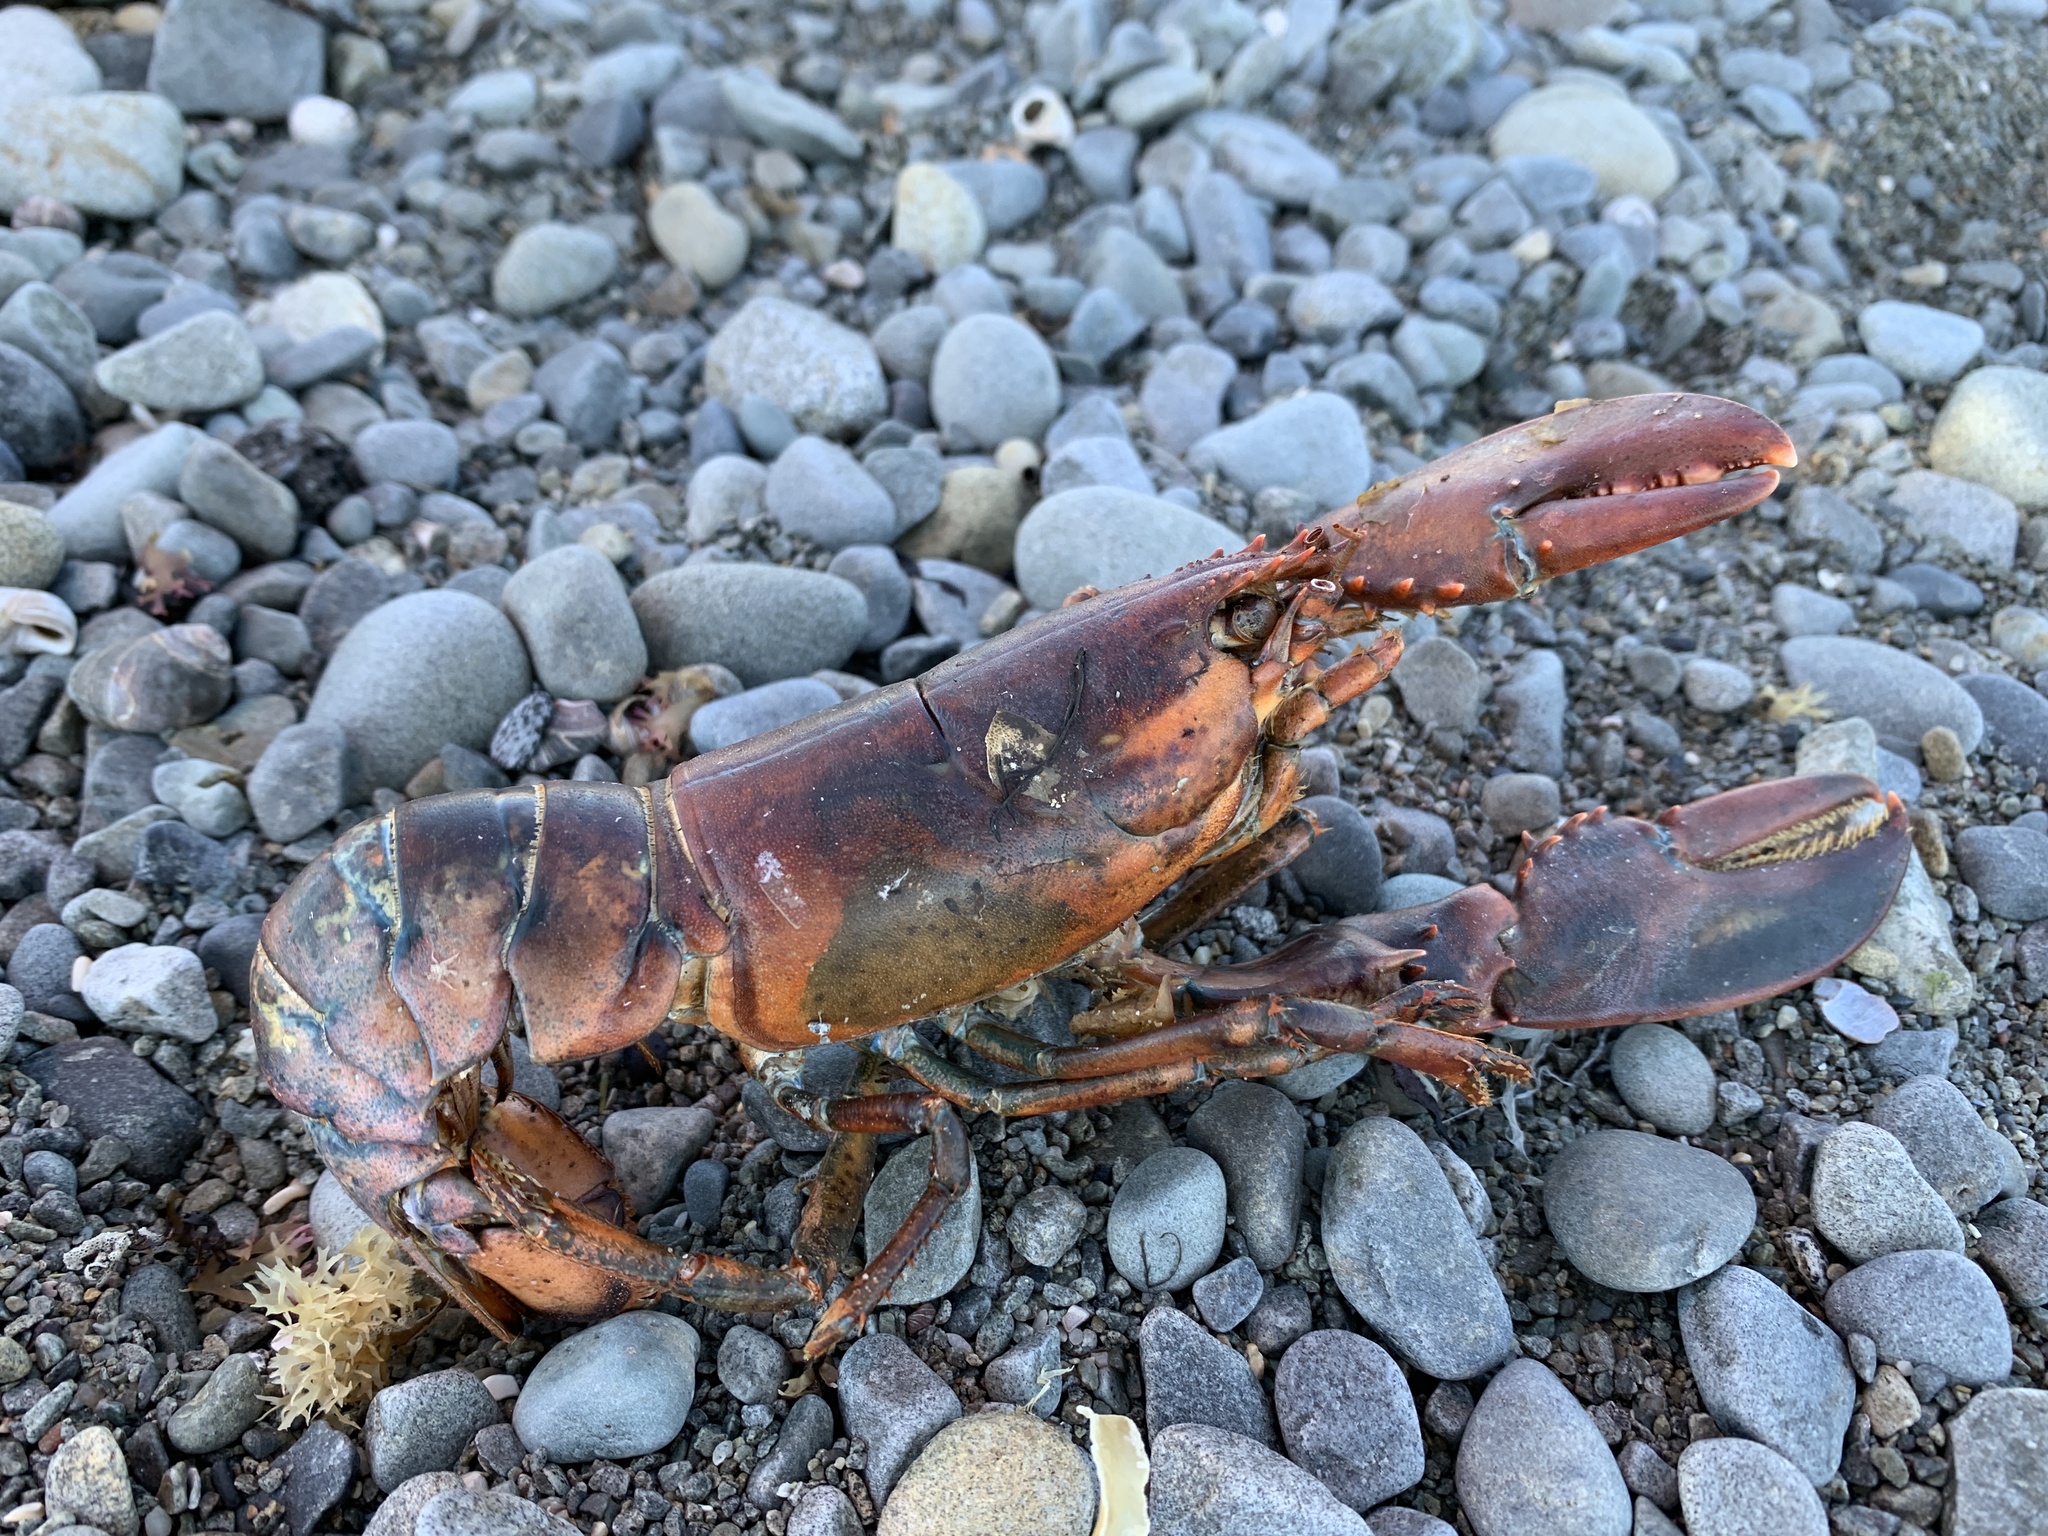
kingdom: Animalia
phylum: Arthropoda
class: Malacostraca
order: Decapoda
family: Nephropidae
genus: Homarus
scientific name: Homarus americanus
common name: American lobster
